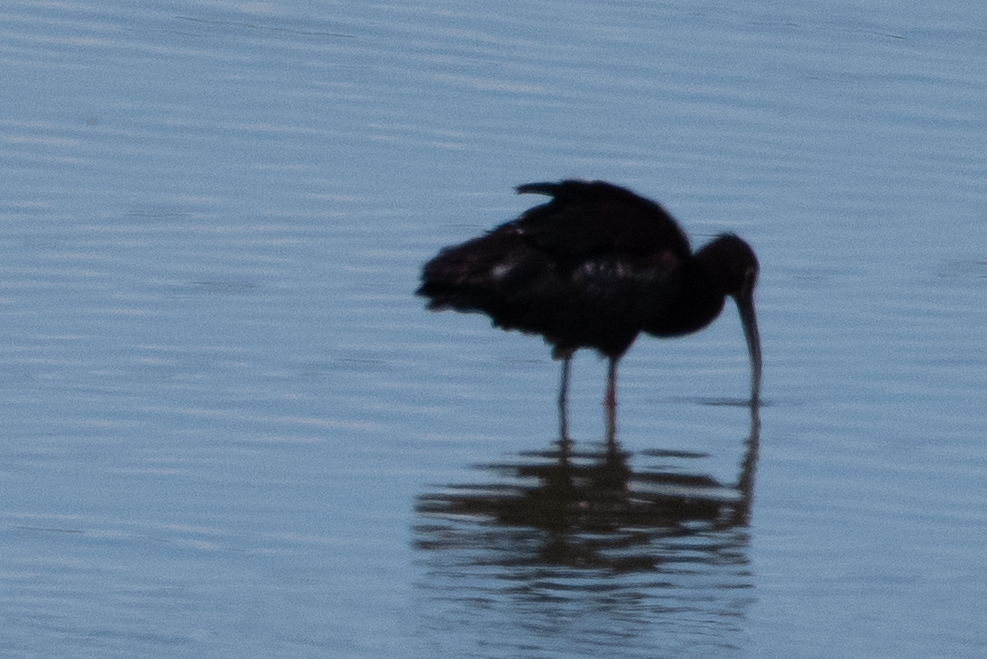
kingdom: Animalia
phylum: Chordata
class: Aves
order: Pelecaniformes
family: Threskiornithidae
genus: Plegadis
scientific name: Plegadis chihi
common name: White-faced ibis
